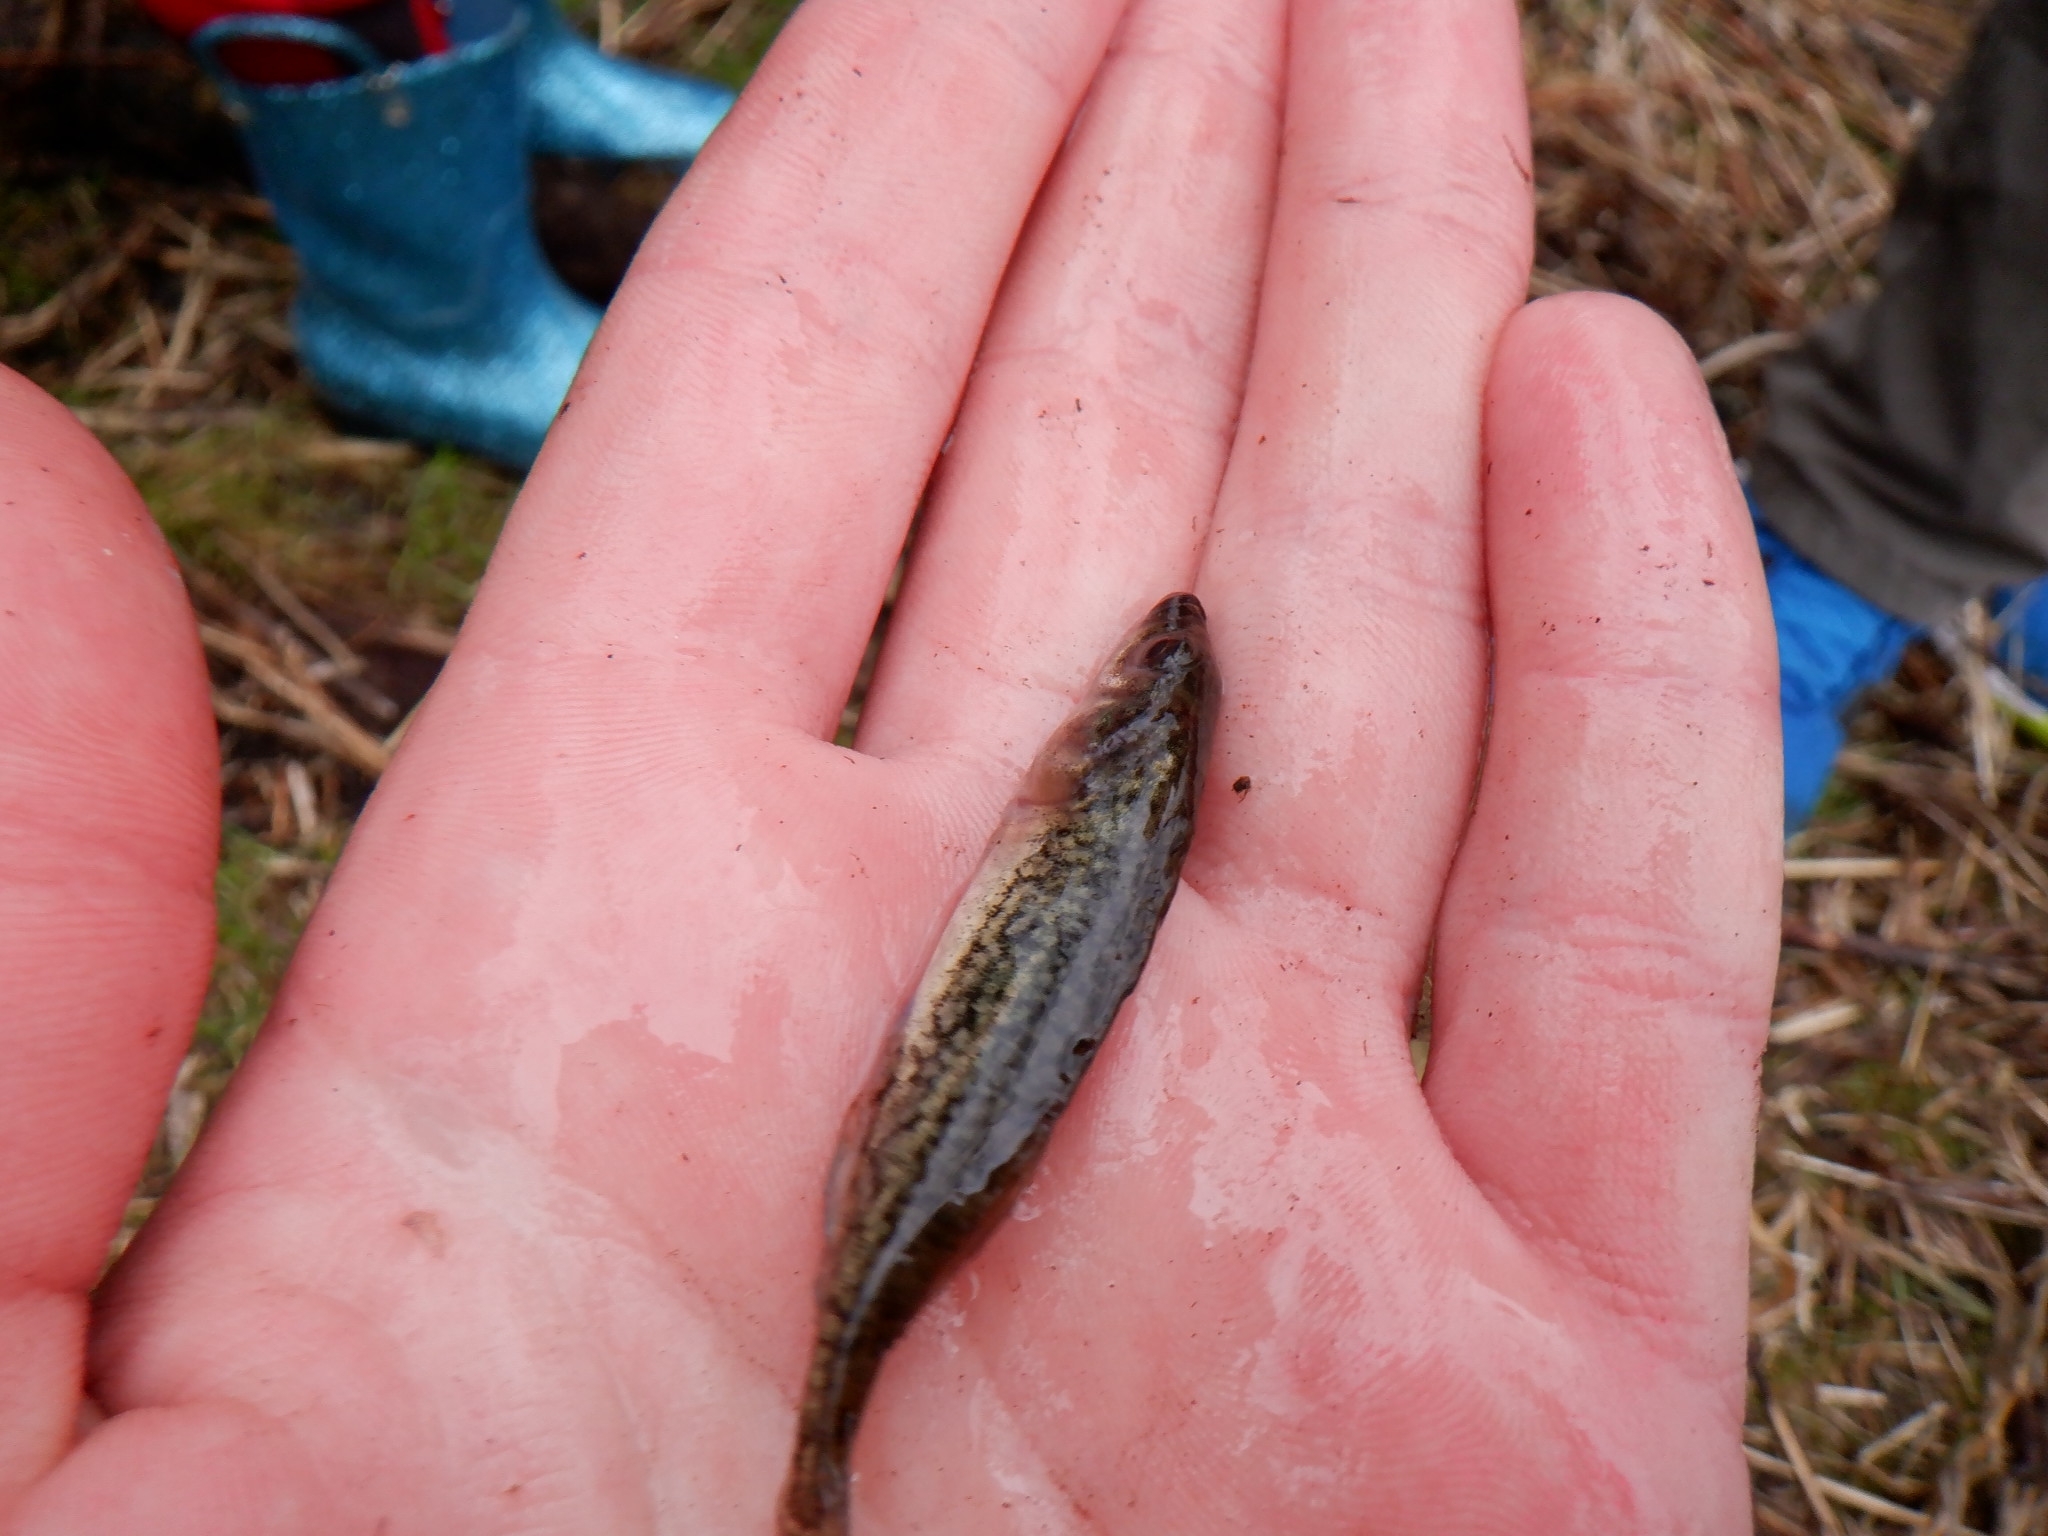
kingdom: Animalia
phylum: Chordata
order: Gasterosteiformes
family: Gasterosteidae
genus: Culaea
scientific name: Culaea inconstans
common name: Brook stickleback
